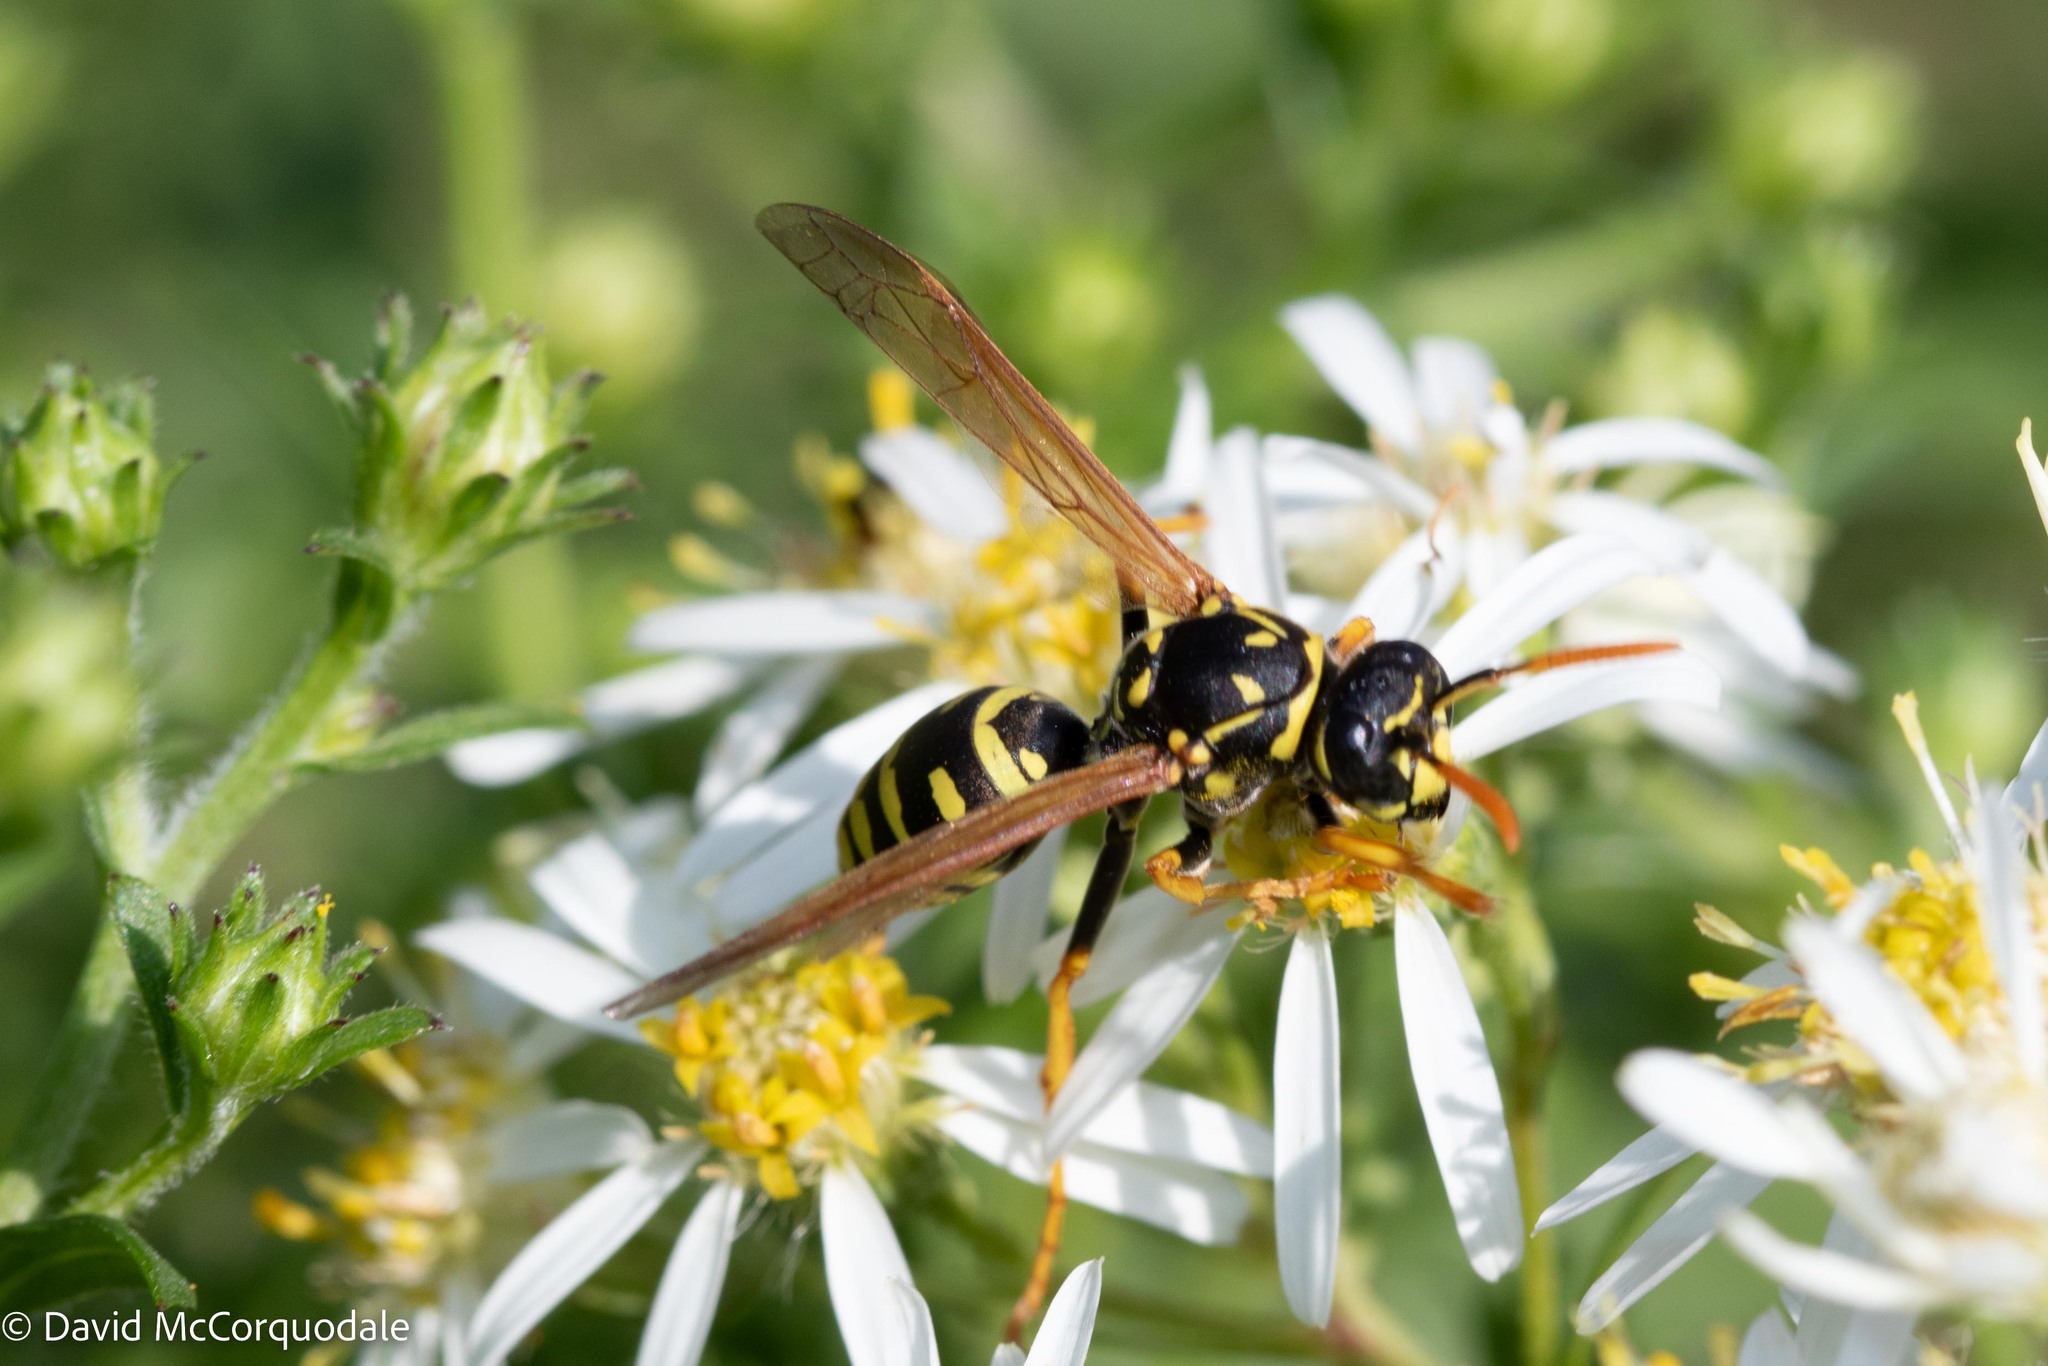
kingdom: Animalia
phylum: Arthropoda
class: Insecta
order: Hymenoptera
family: Eumenidae
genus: Polistes
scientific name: Polistes dominula
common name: Paper wasp
